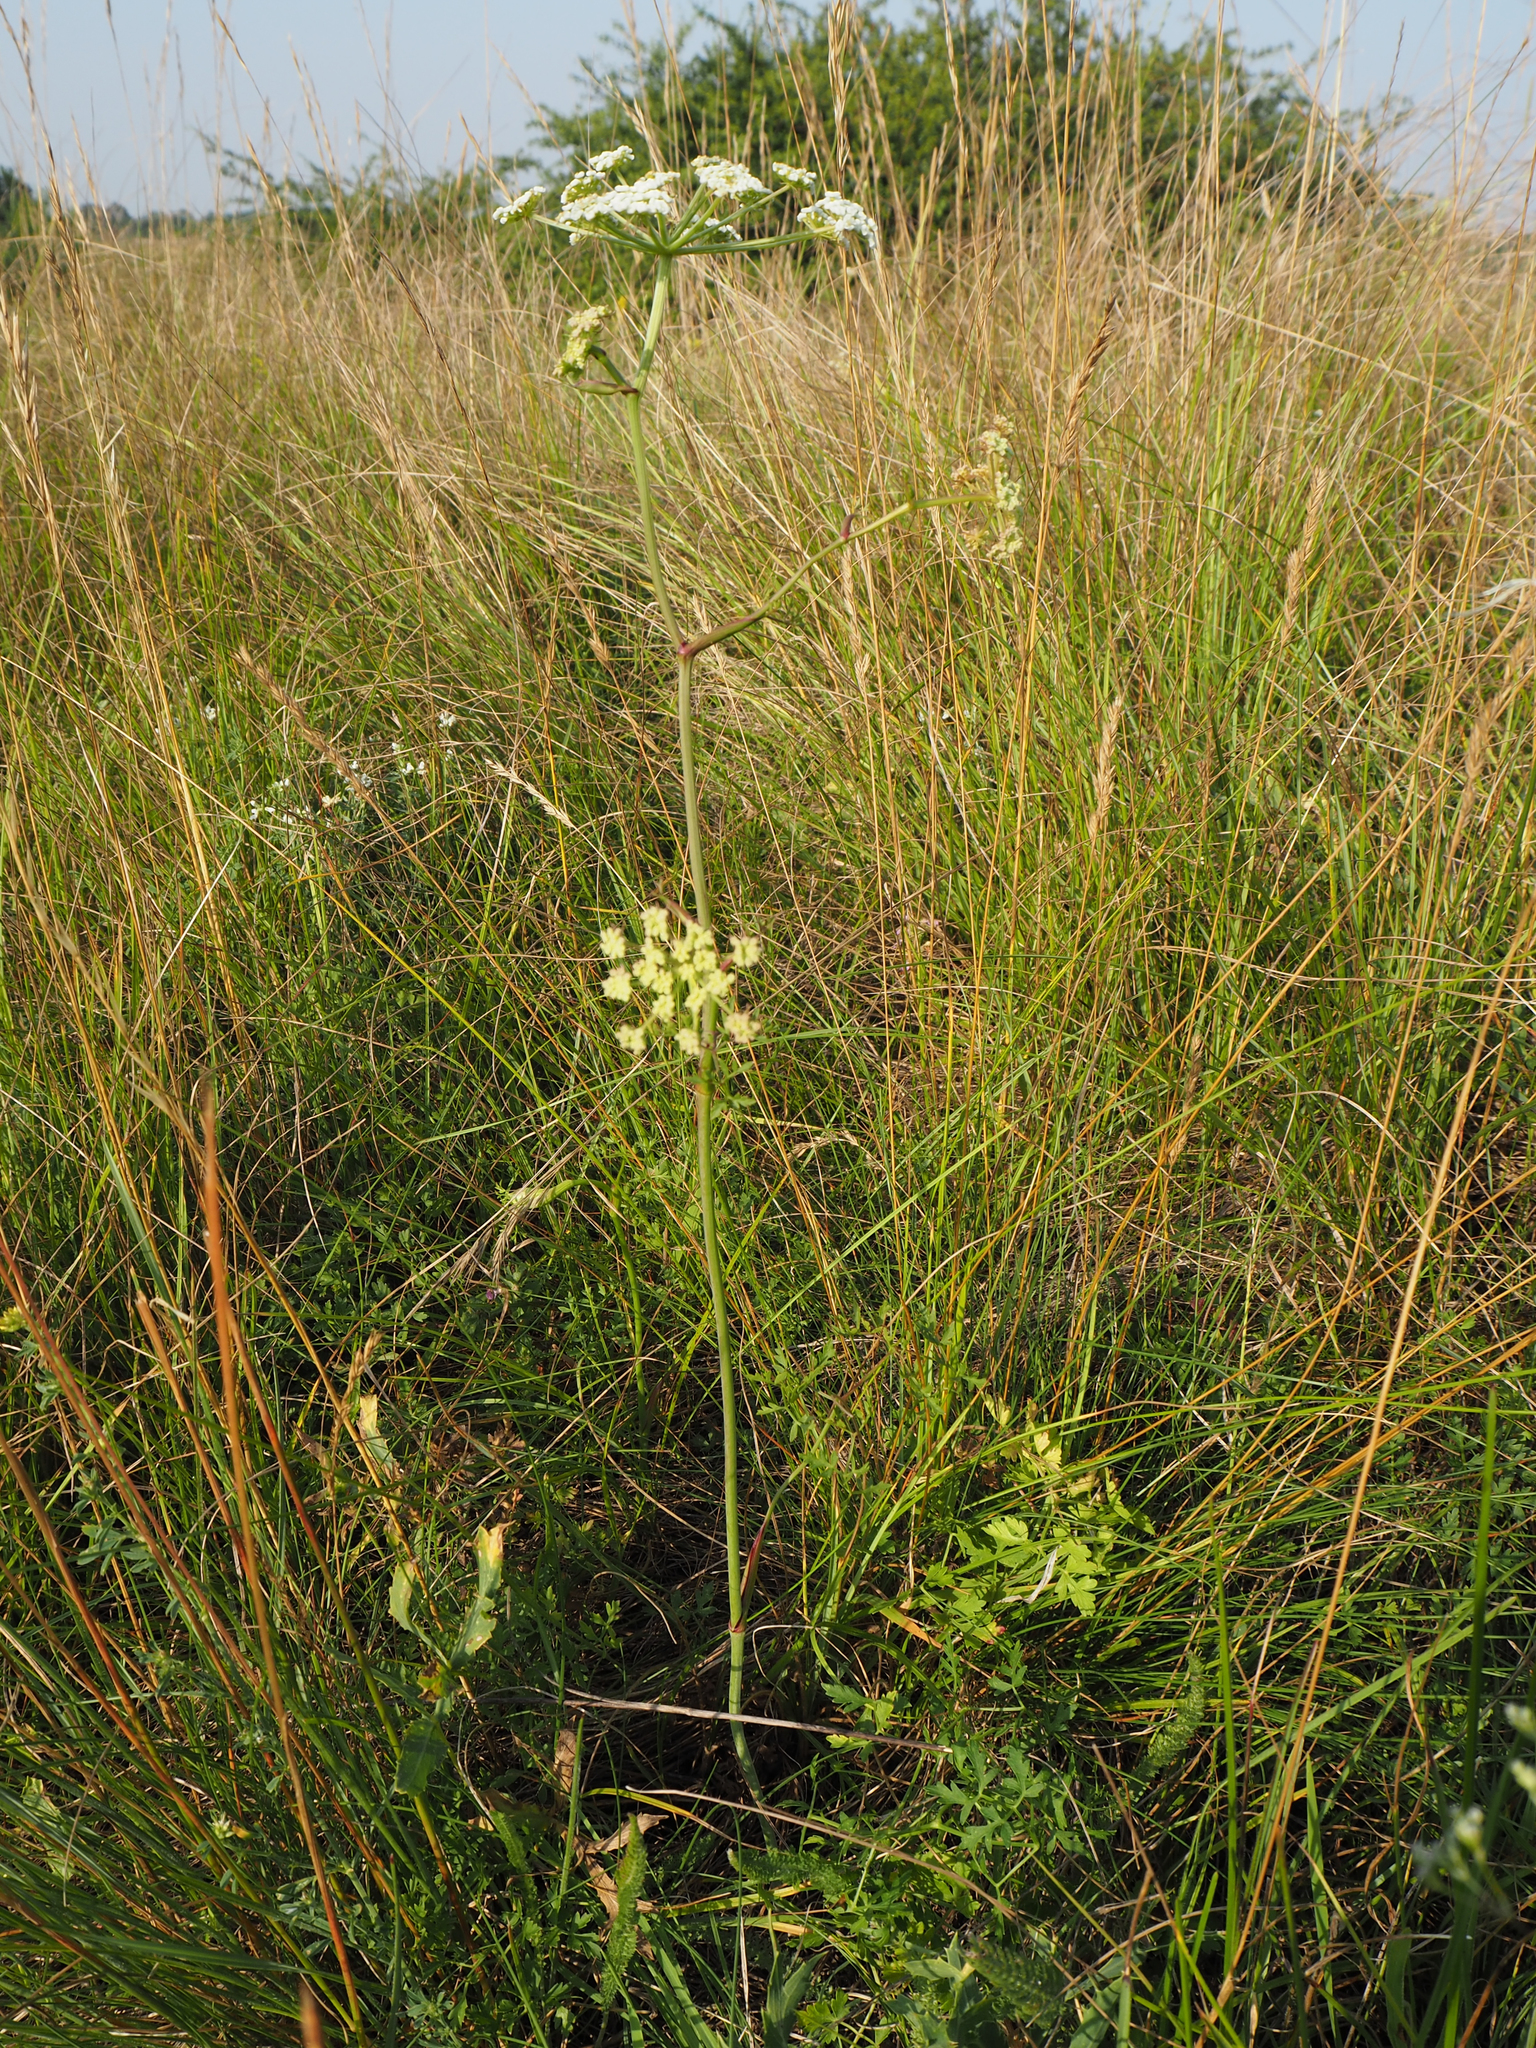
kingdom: Plantae
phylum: Tracheophyta
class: Magnoliopsida
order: Apiales
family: Apiaceae
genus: Oreoselinum
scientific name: Oreoselinum nigrum
